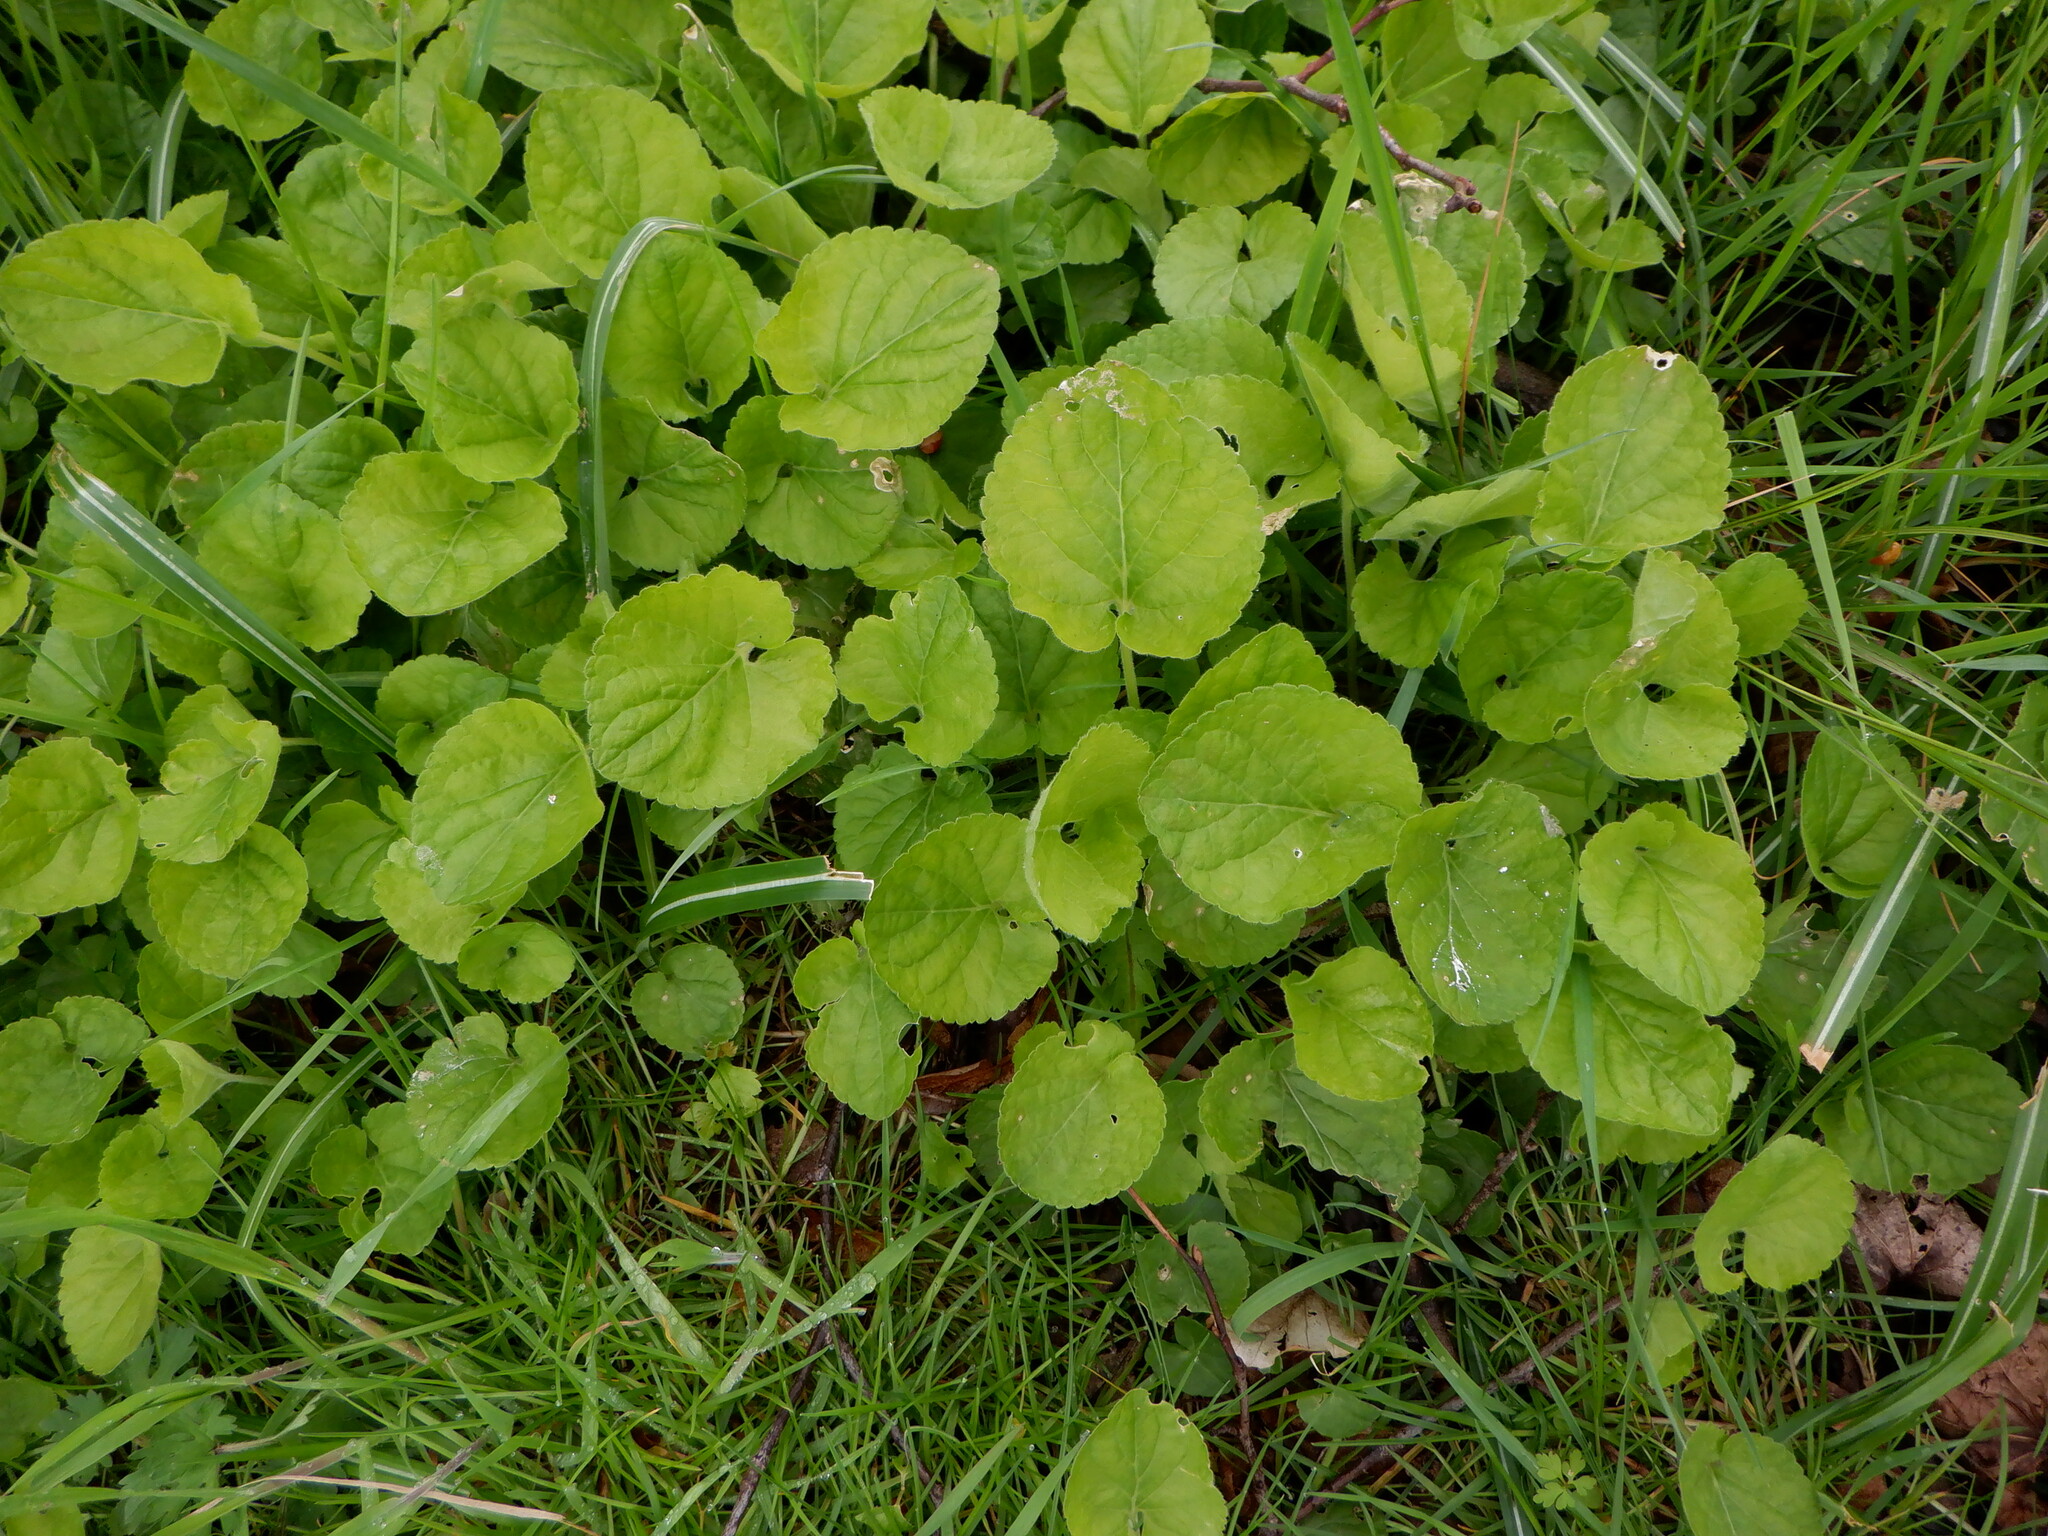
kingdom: Plantae
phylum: Tracheophyta
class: Magnoliopsida
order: Malpighiales
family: Violaceae
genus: Viola
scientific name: Viola odorata
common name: Sweet violet
